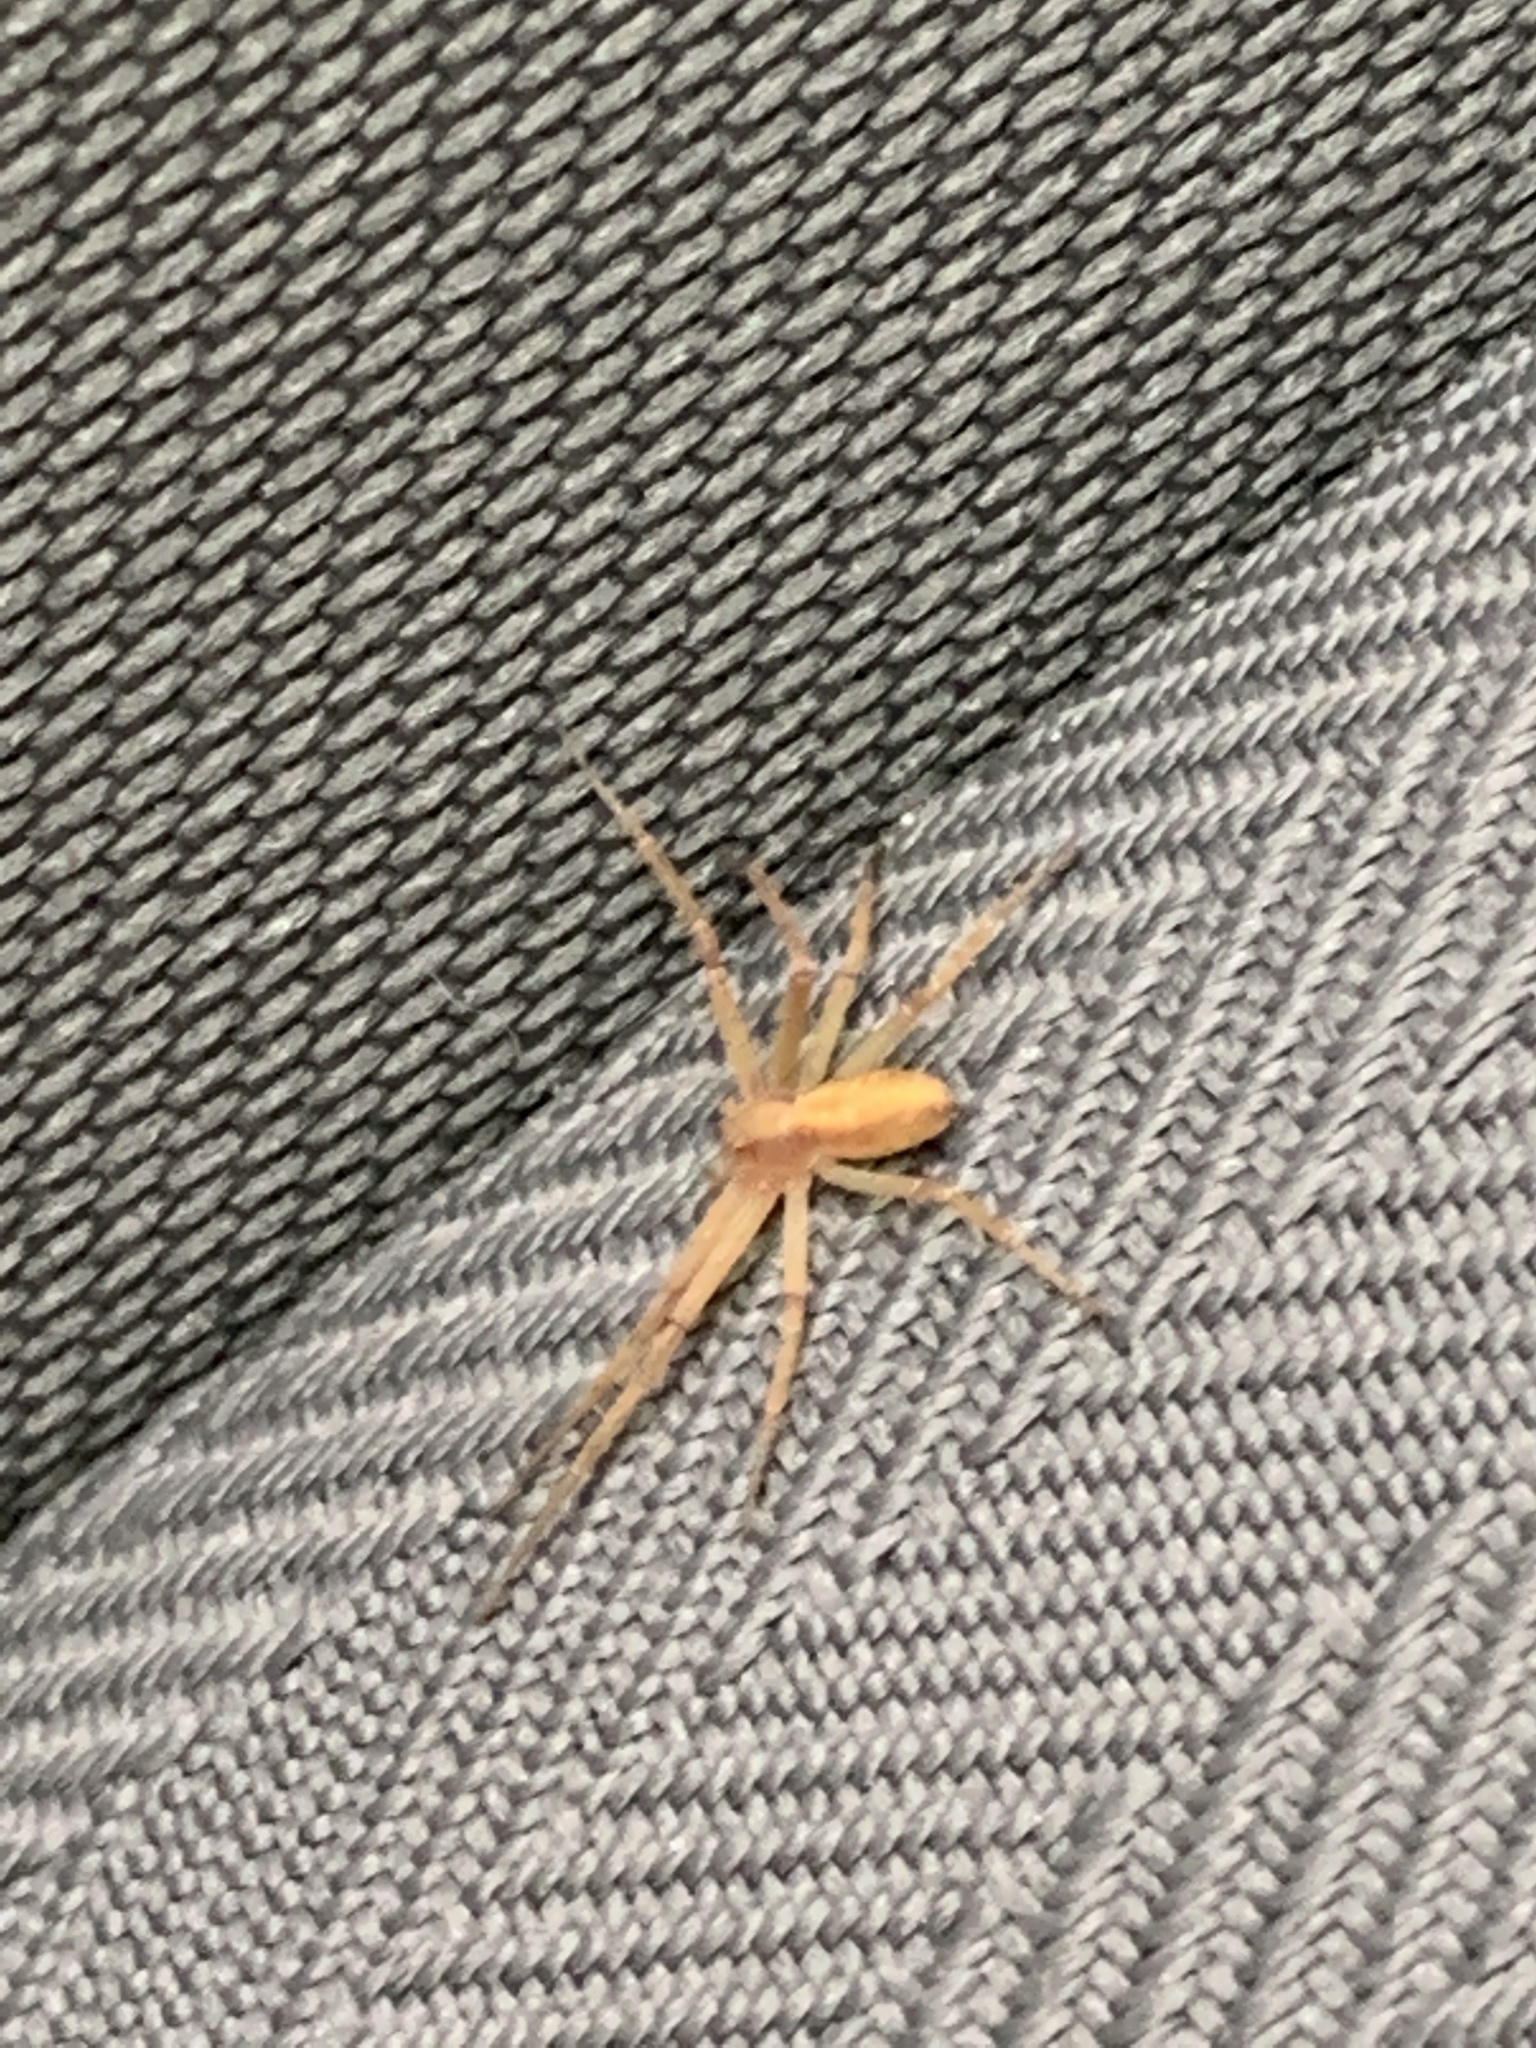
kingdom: Animalia
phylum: Arthropoda
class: Arachnida
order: Araneae
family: Philodromidae
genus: Philodromus
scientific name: Philodromus
